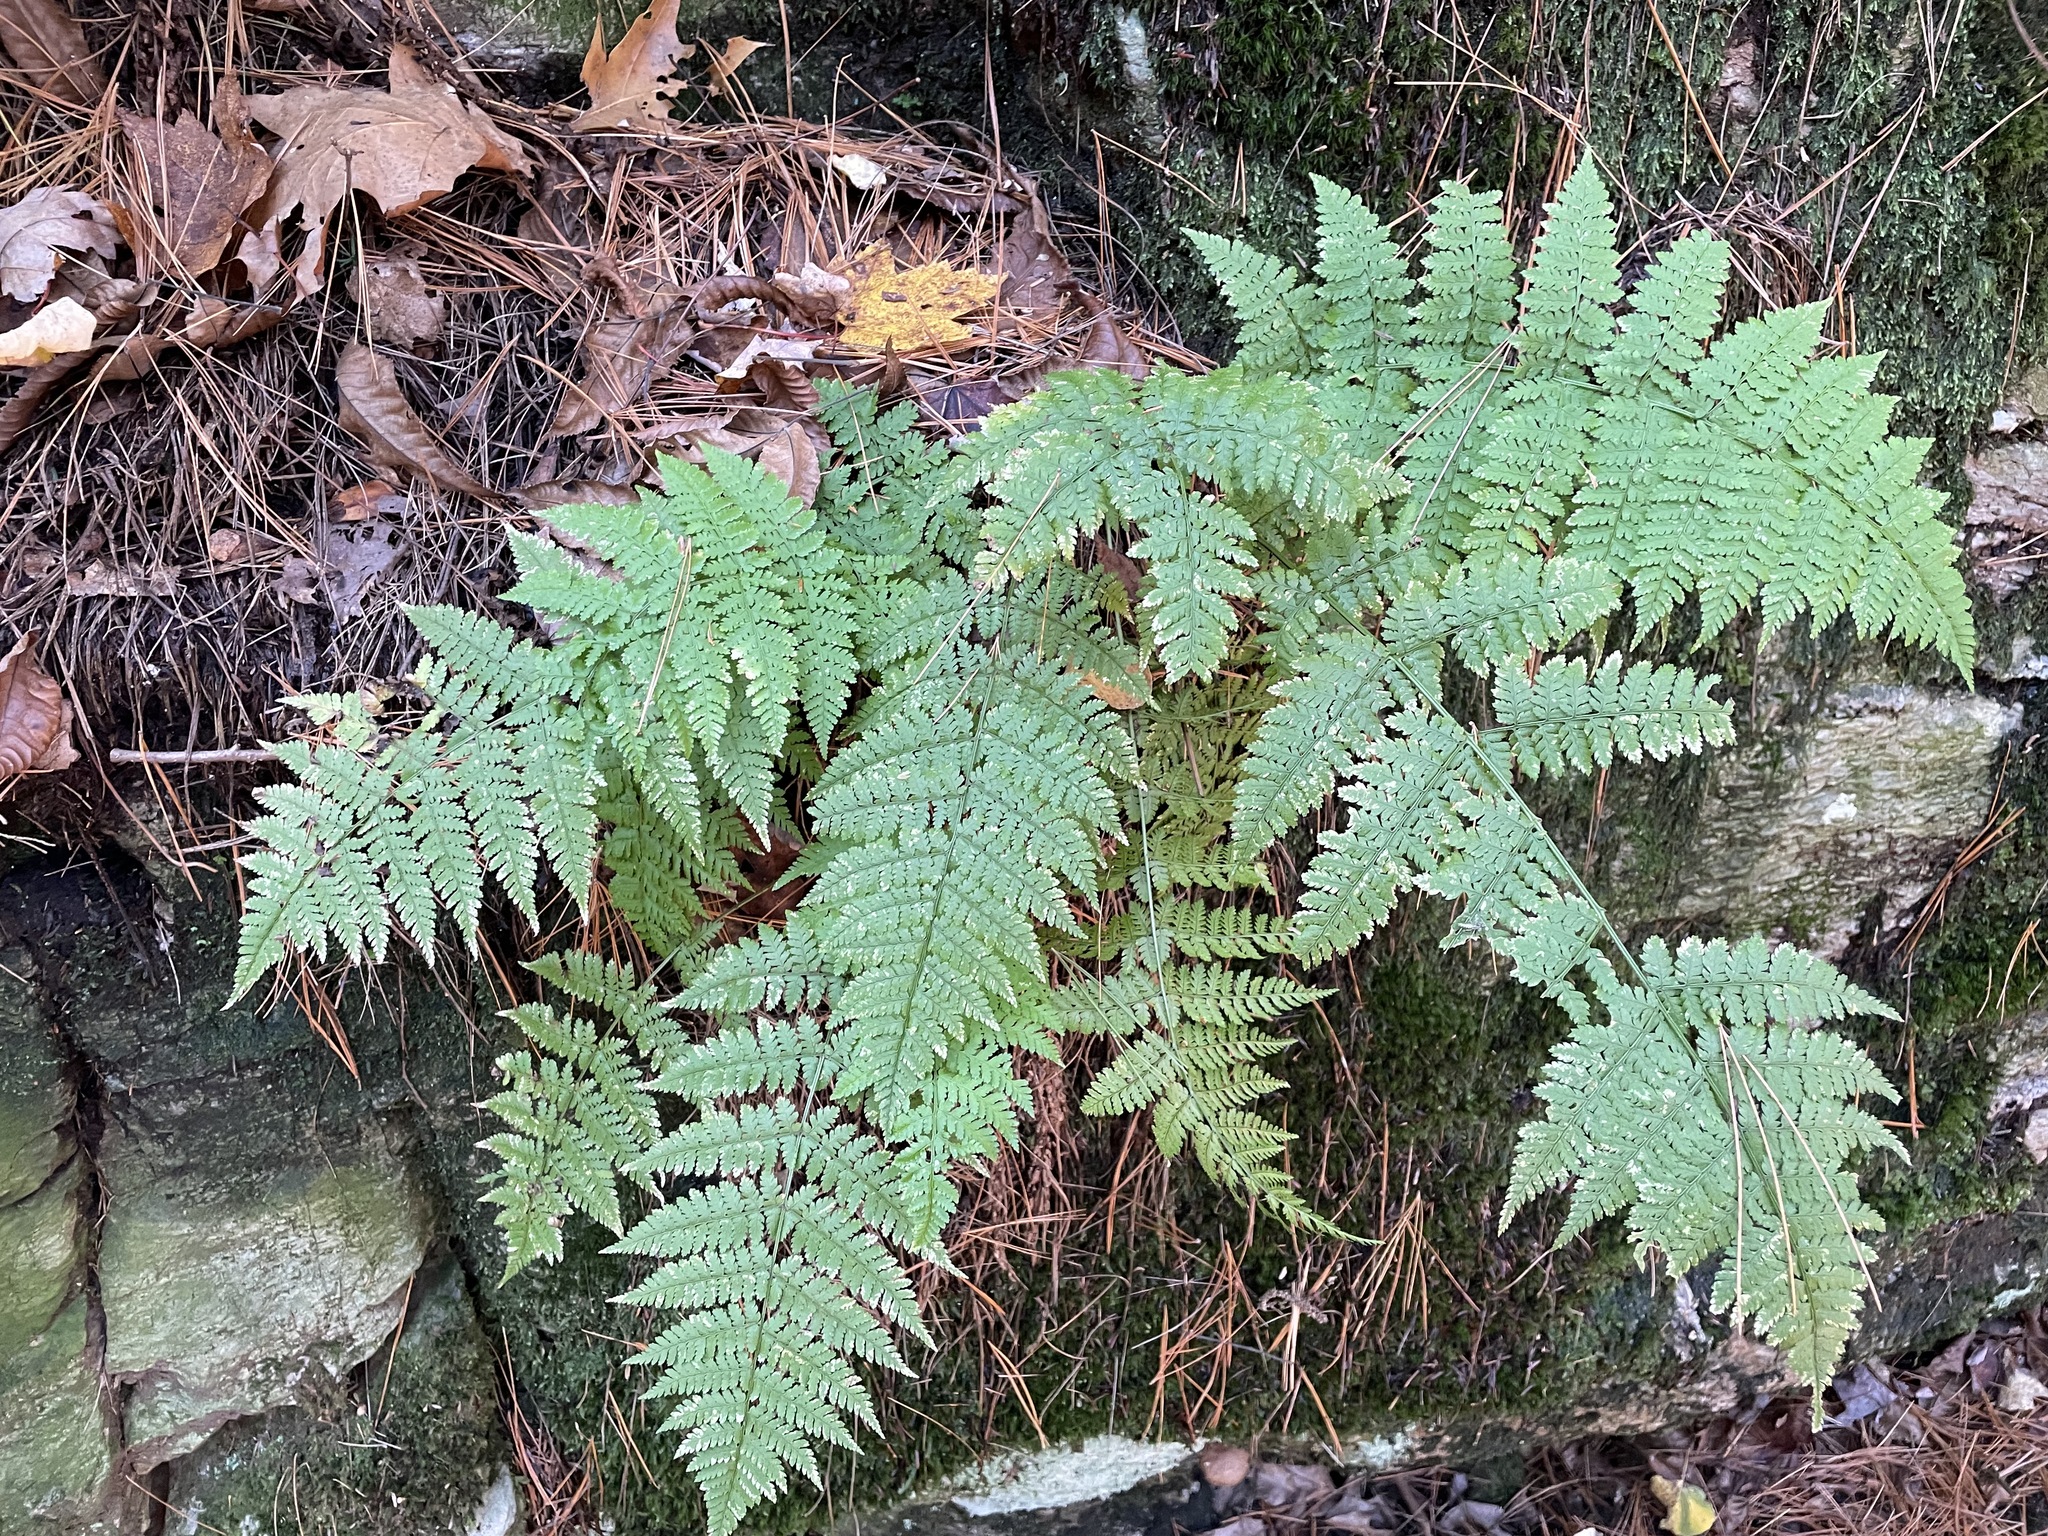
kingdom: Plantae
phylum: Tracheophyta
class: Polypodiopsida
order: Polypodiales
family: Dryopteridaceae
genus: Dryopteris
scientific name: Dryopteris intermedia
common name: Evergreen wood fern
